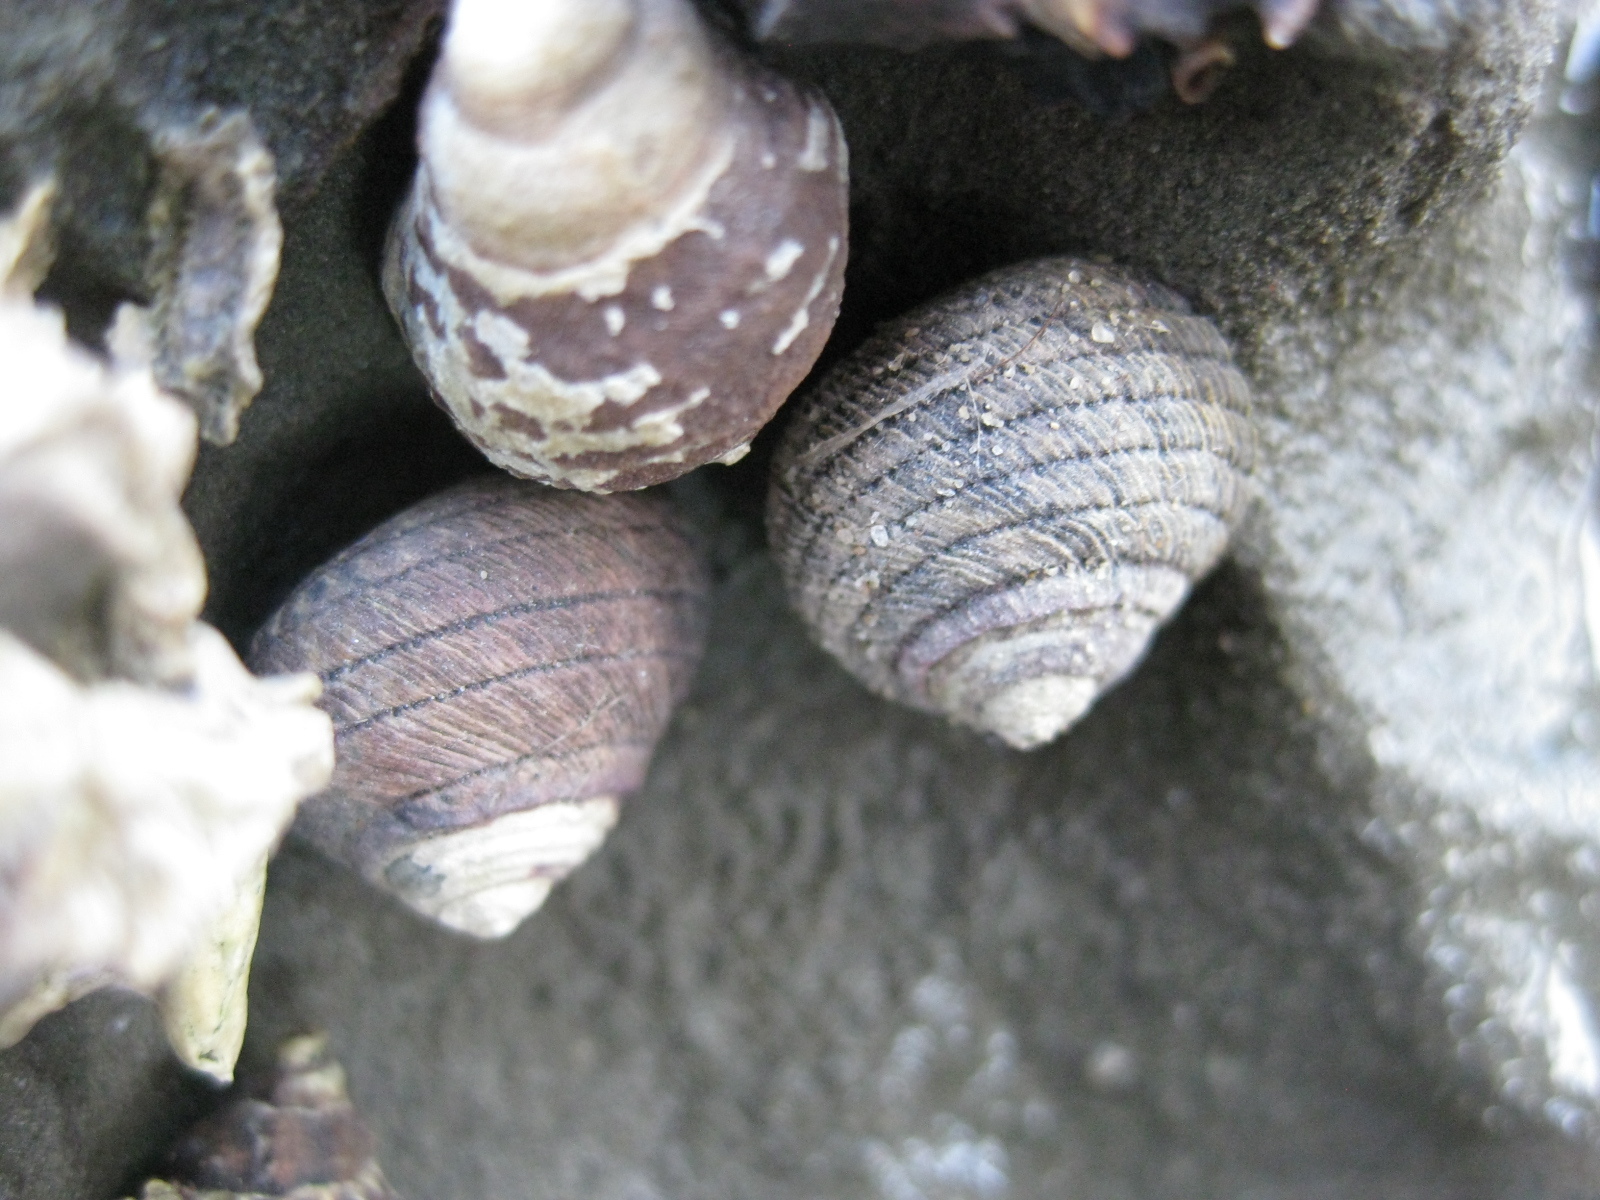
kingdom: Animalia
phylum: Mollusca
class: Gastropoda
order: Trochida
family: Trochidae
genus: Diloma
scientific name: Diloma aethiops
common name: Scorched monodont
